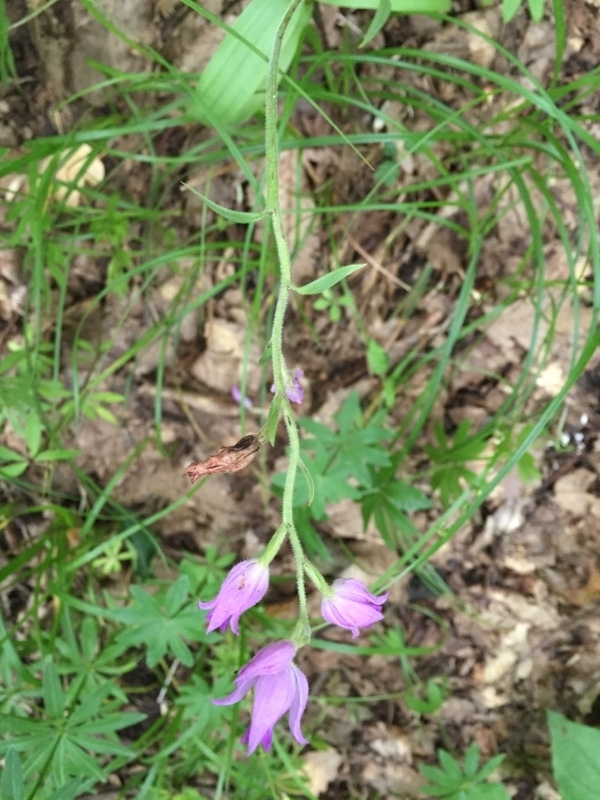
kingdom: Plantae
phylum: Tracheophyta
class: Liliopsida
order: Asparagales
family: Orchidaceae
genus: Cephalanthera
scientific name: Cephalanthera rubra
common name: Red helleborine
